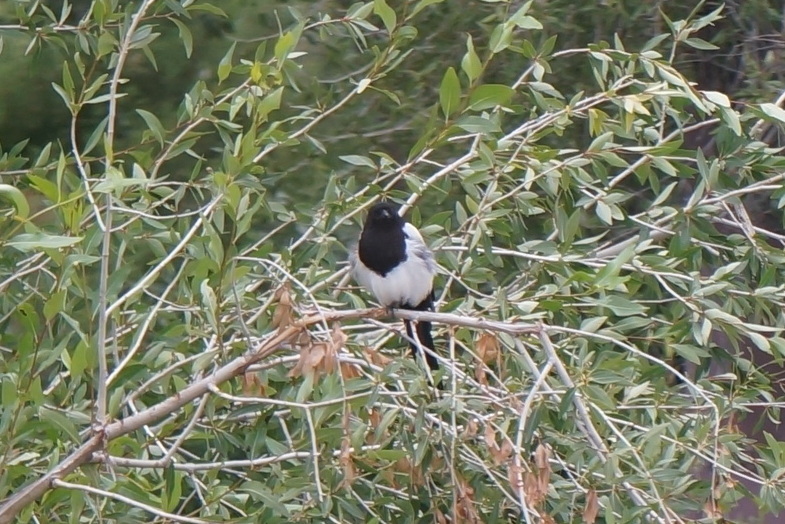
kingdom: Animalia
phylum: Chordata
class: Aves
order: Passeriformes
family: Corvidae
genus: Pica
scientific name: Pica hudsonia
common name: Black-billed magpie
